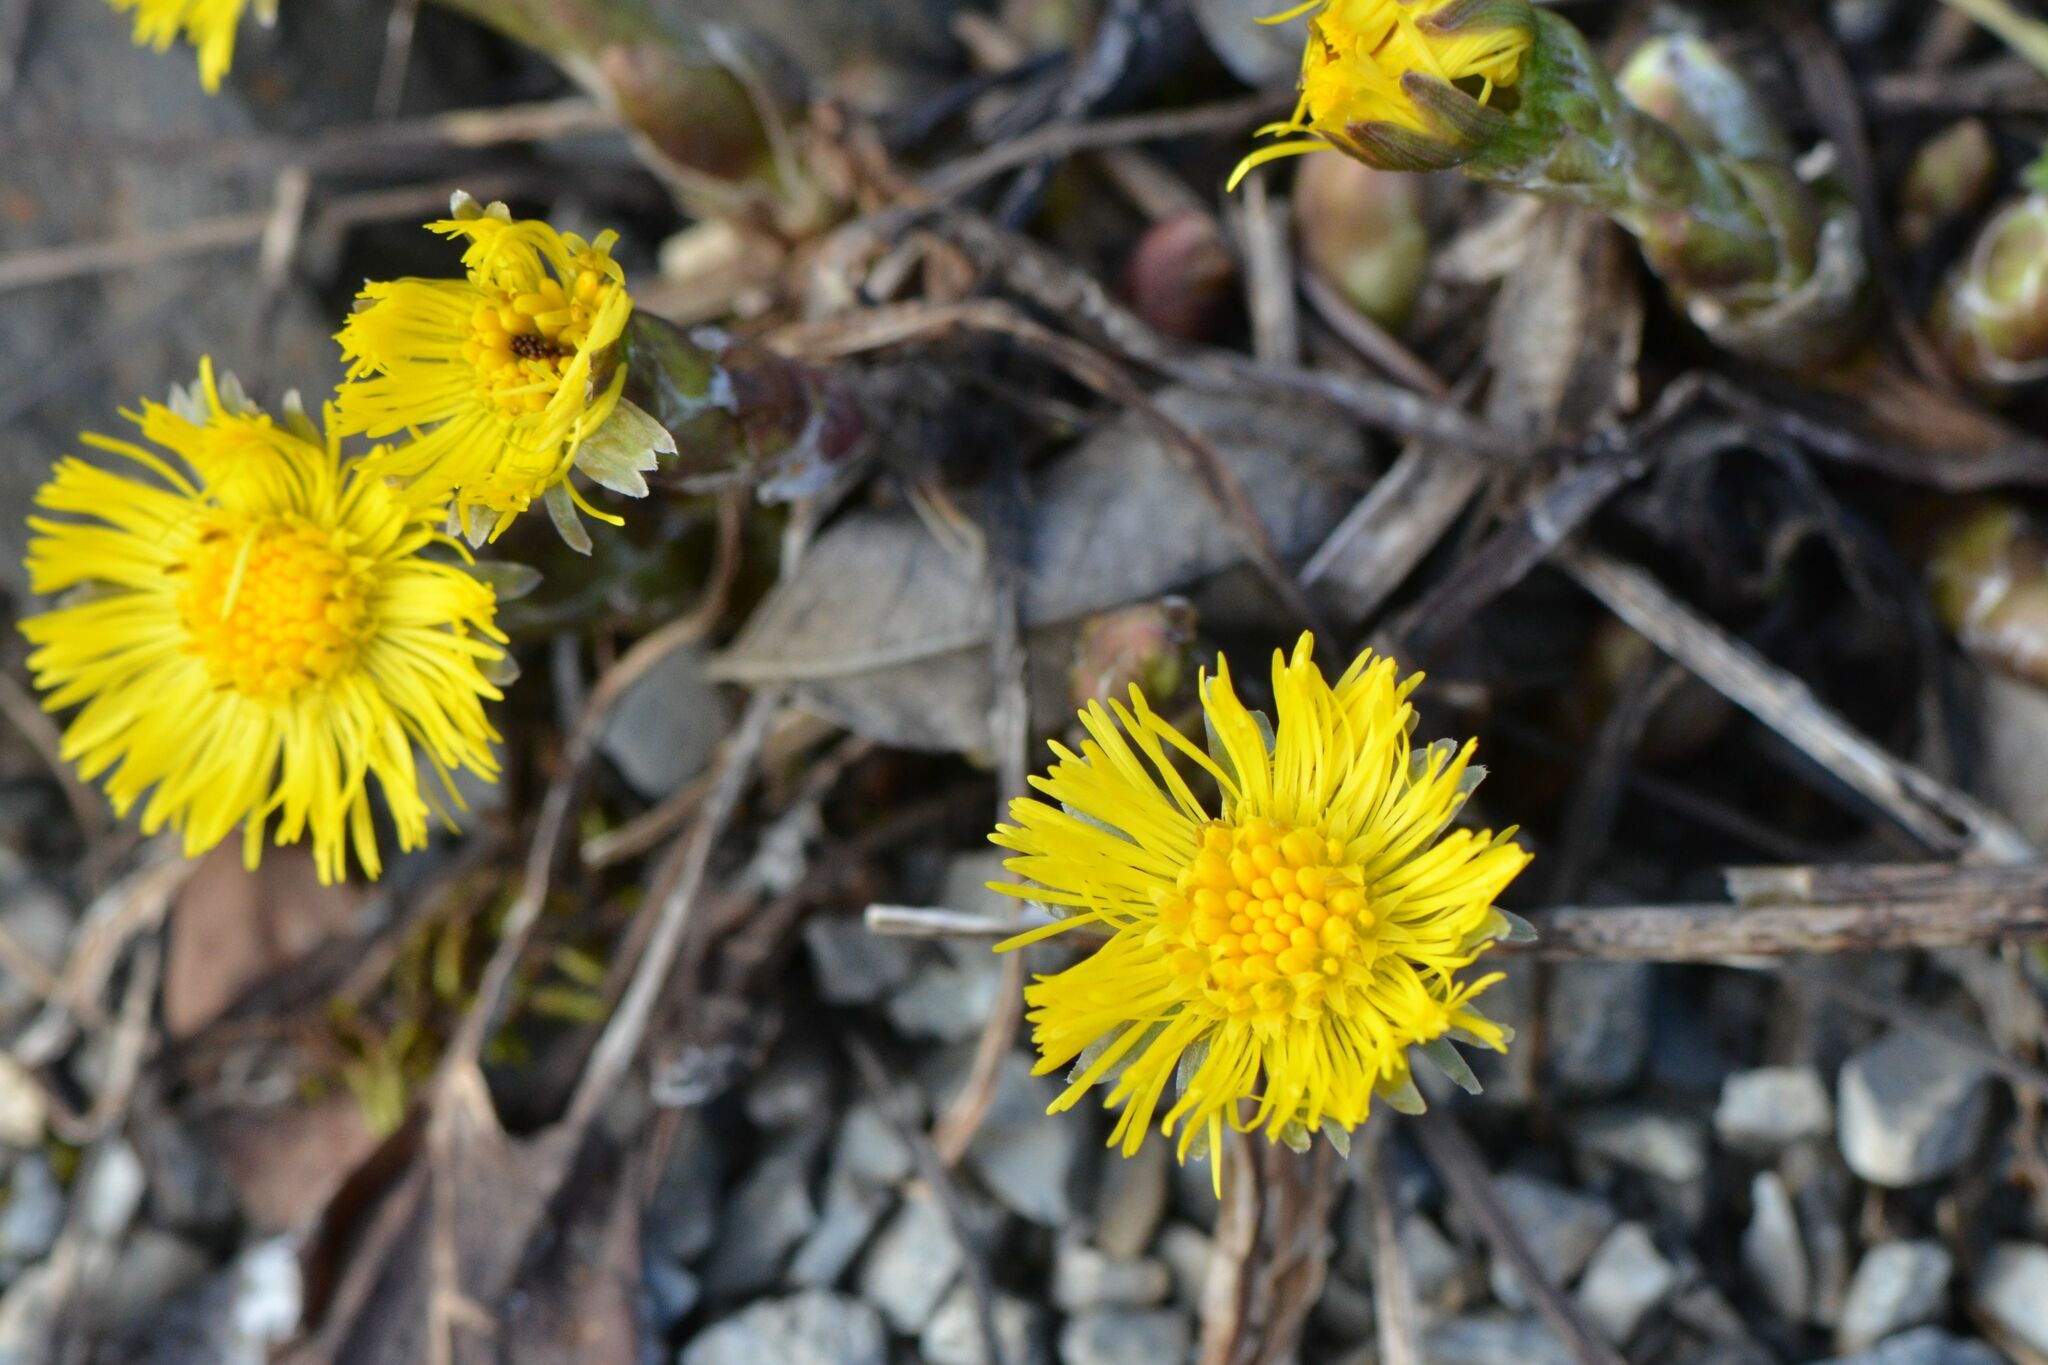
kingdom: Plantae
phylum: Tracheophyta
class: Magnoliopsida
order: Asterales
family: Asteraceae
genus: Tussilago
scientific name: Tussilago farfara
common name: Coltsfoot
